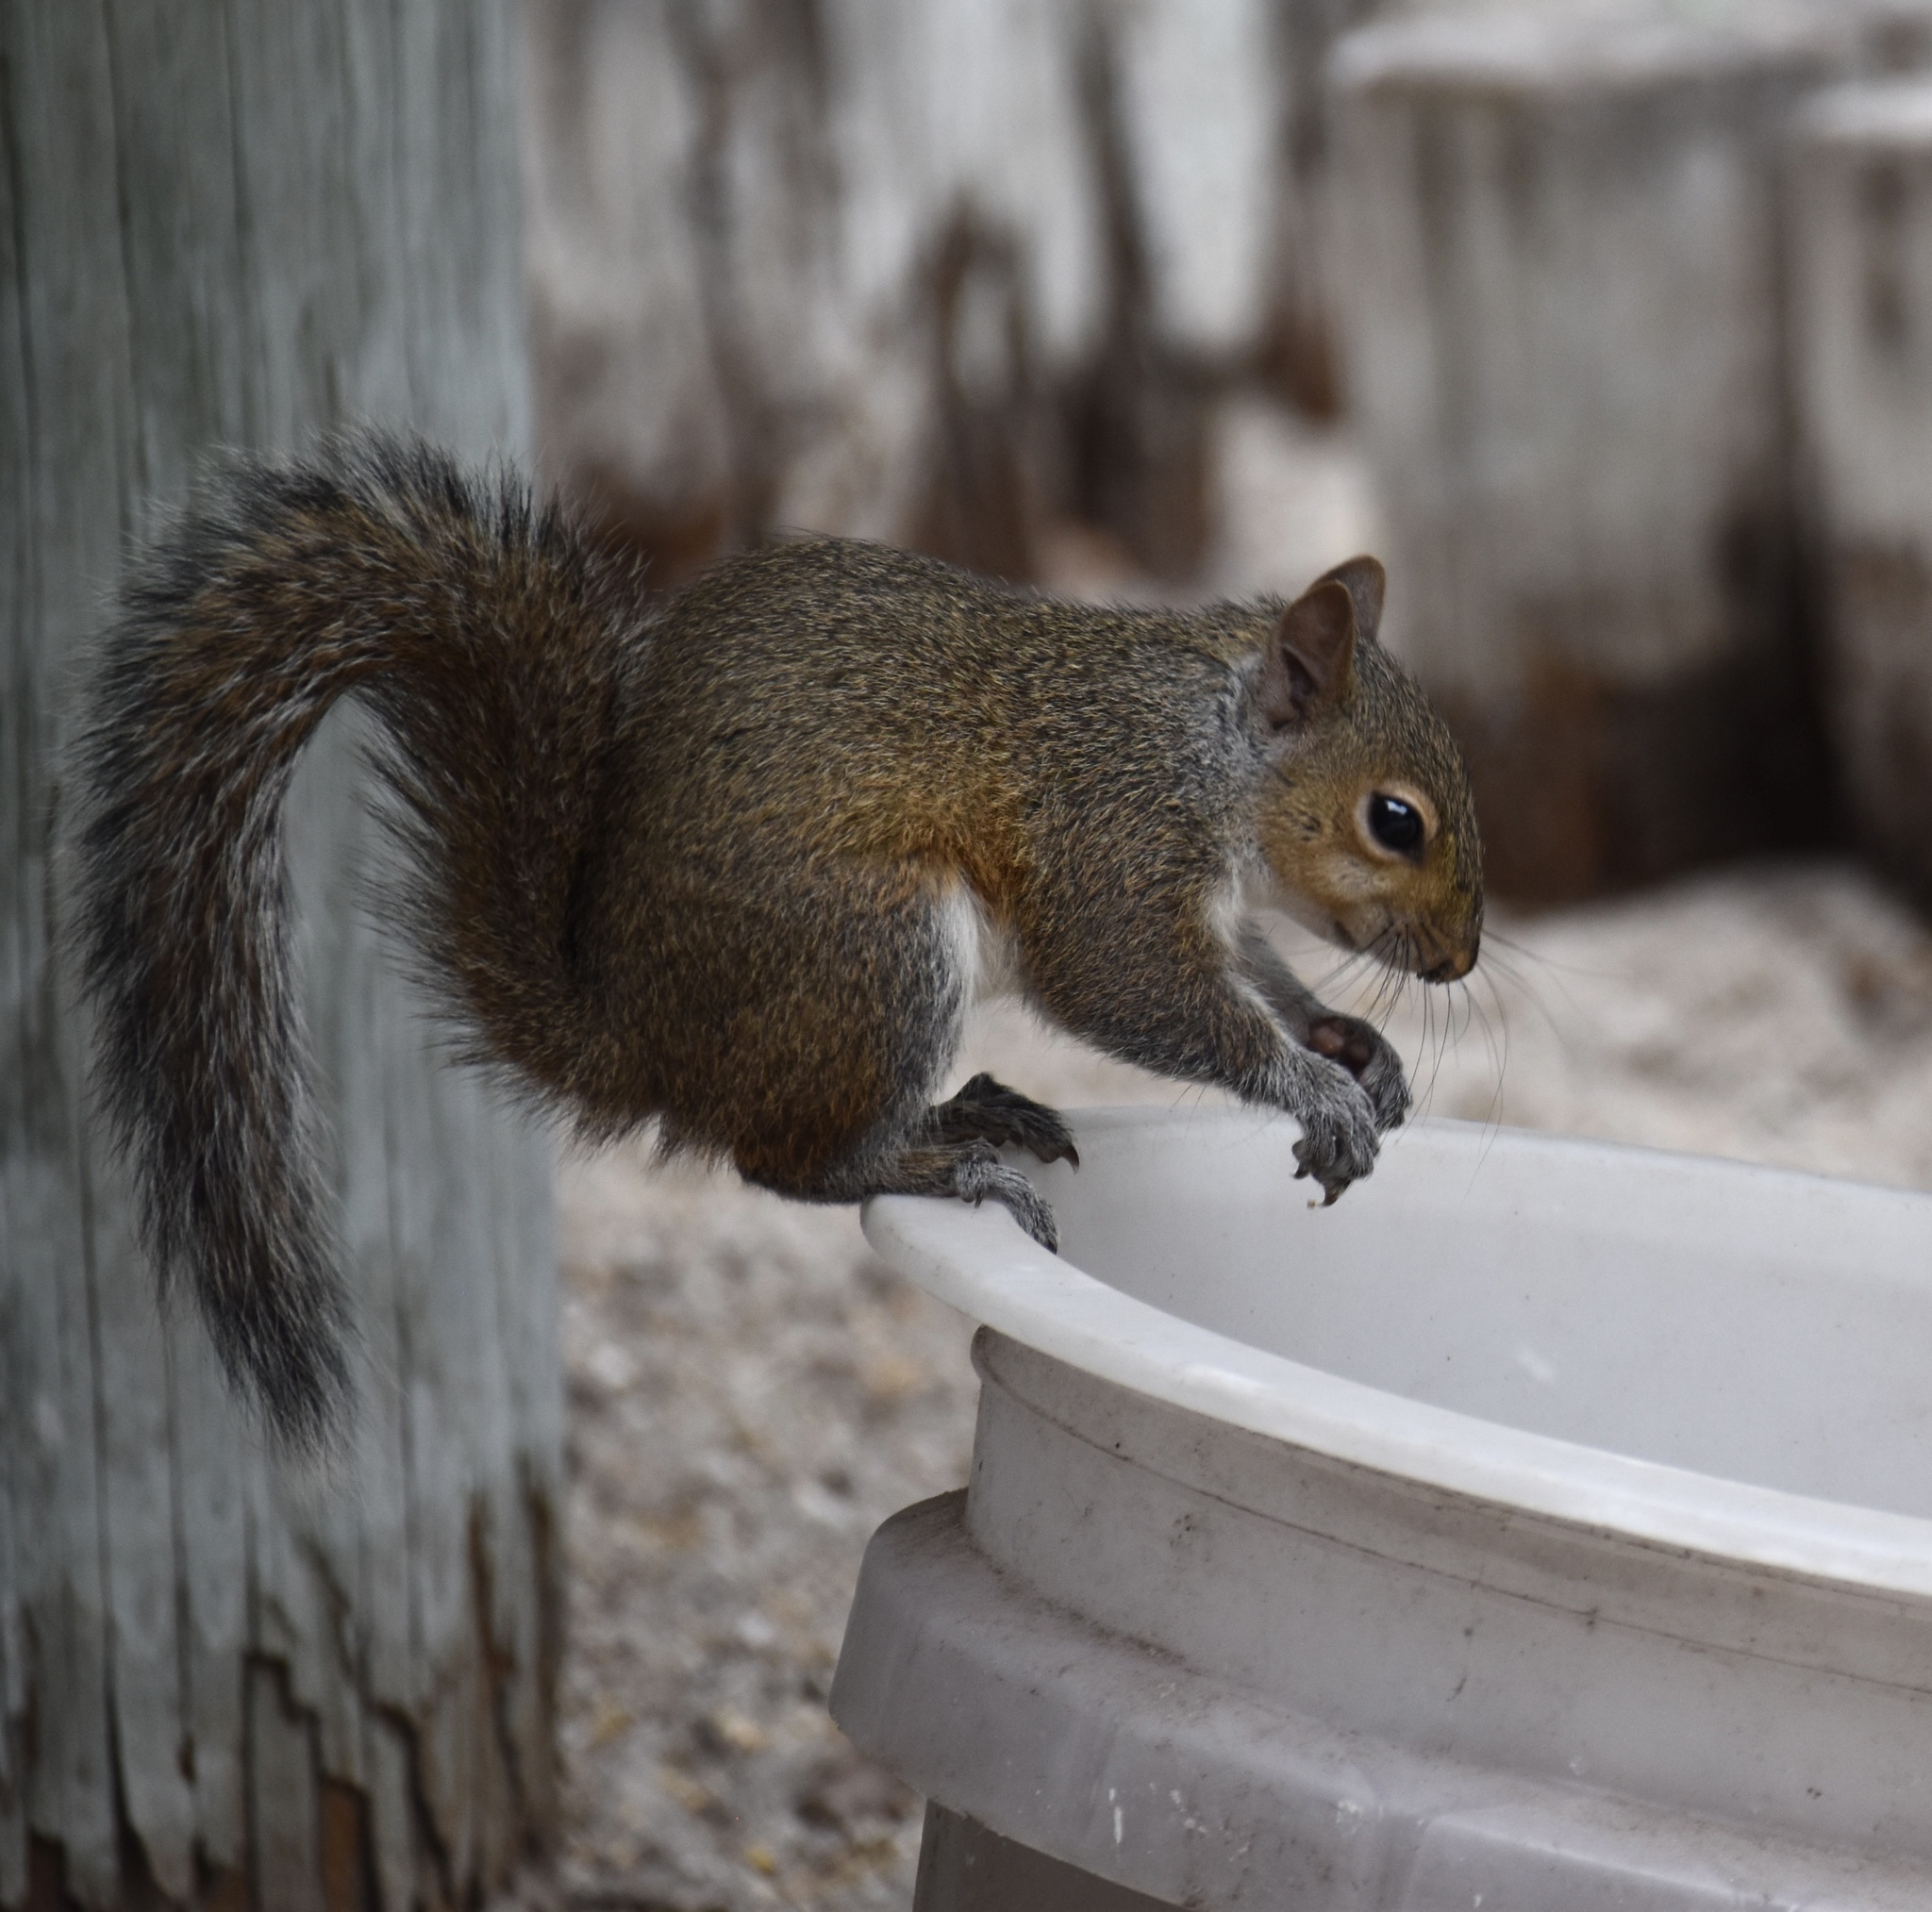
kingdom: Animalia
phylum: Chordata
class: Mammalia
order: Rodentia
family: Sciuridae
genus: Sciurus
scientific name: Sciurus carolinensis
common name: Eastern gray squirrel
